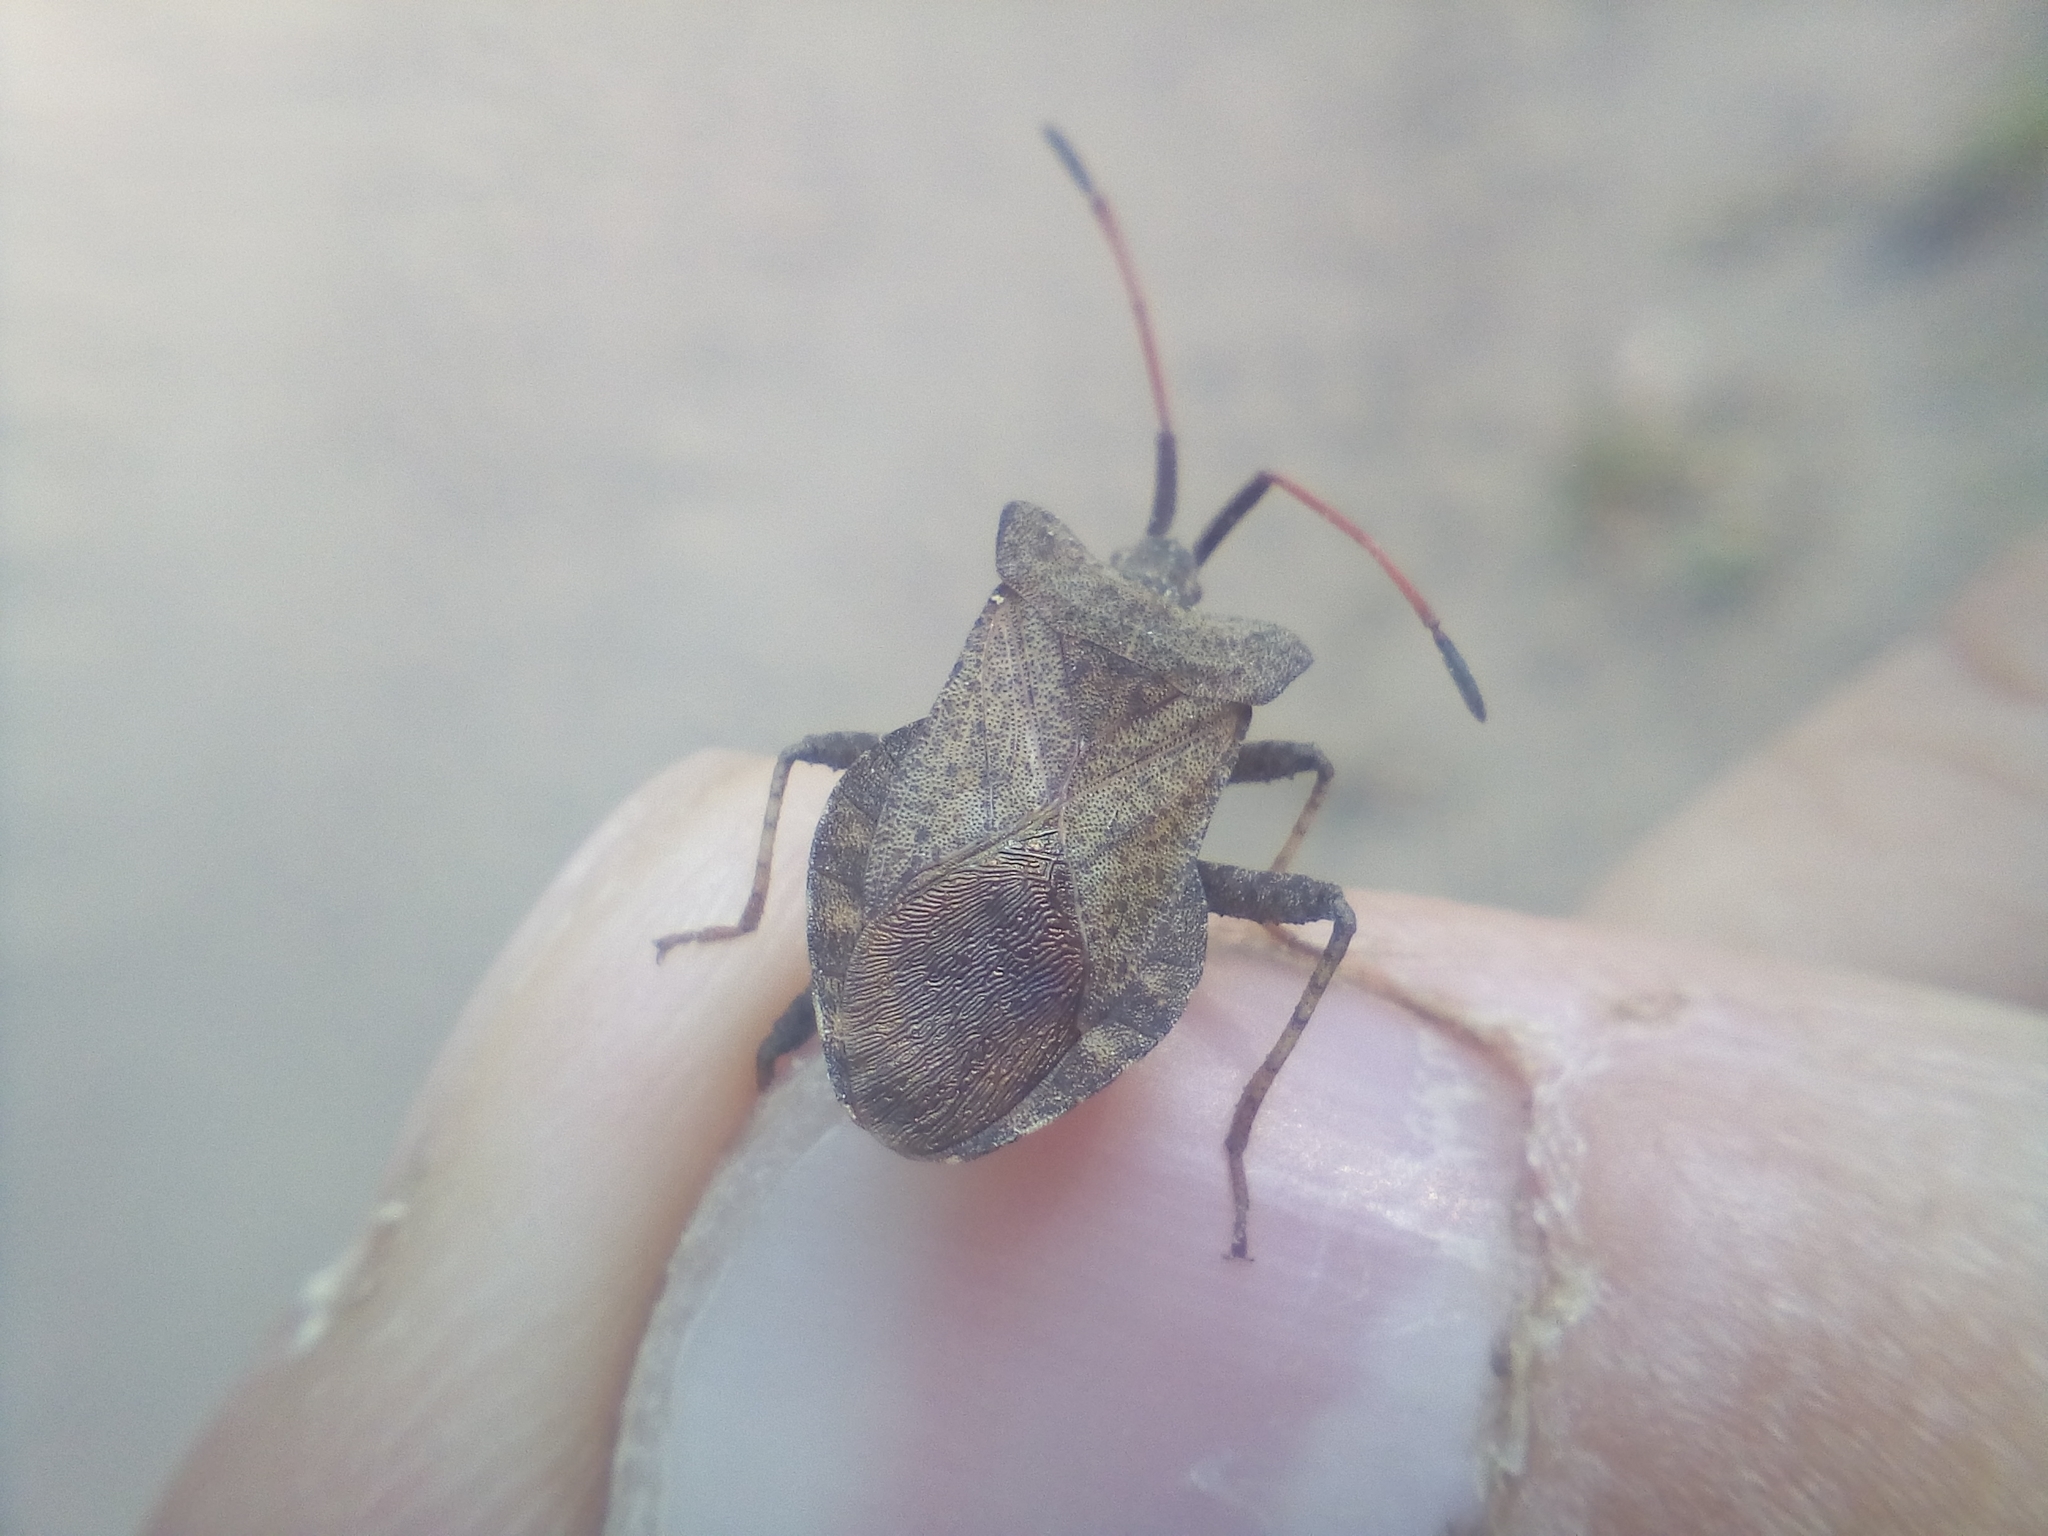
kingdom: Animalia
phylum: Arthropoda
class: Insecta
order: Hemiptera
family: Coreidae
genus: Coreus
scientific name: Coreus marginatus
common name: Dock bug
